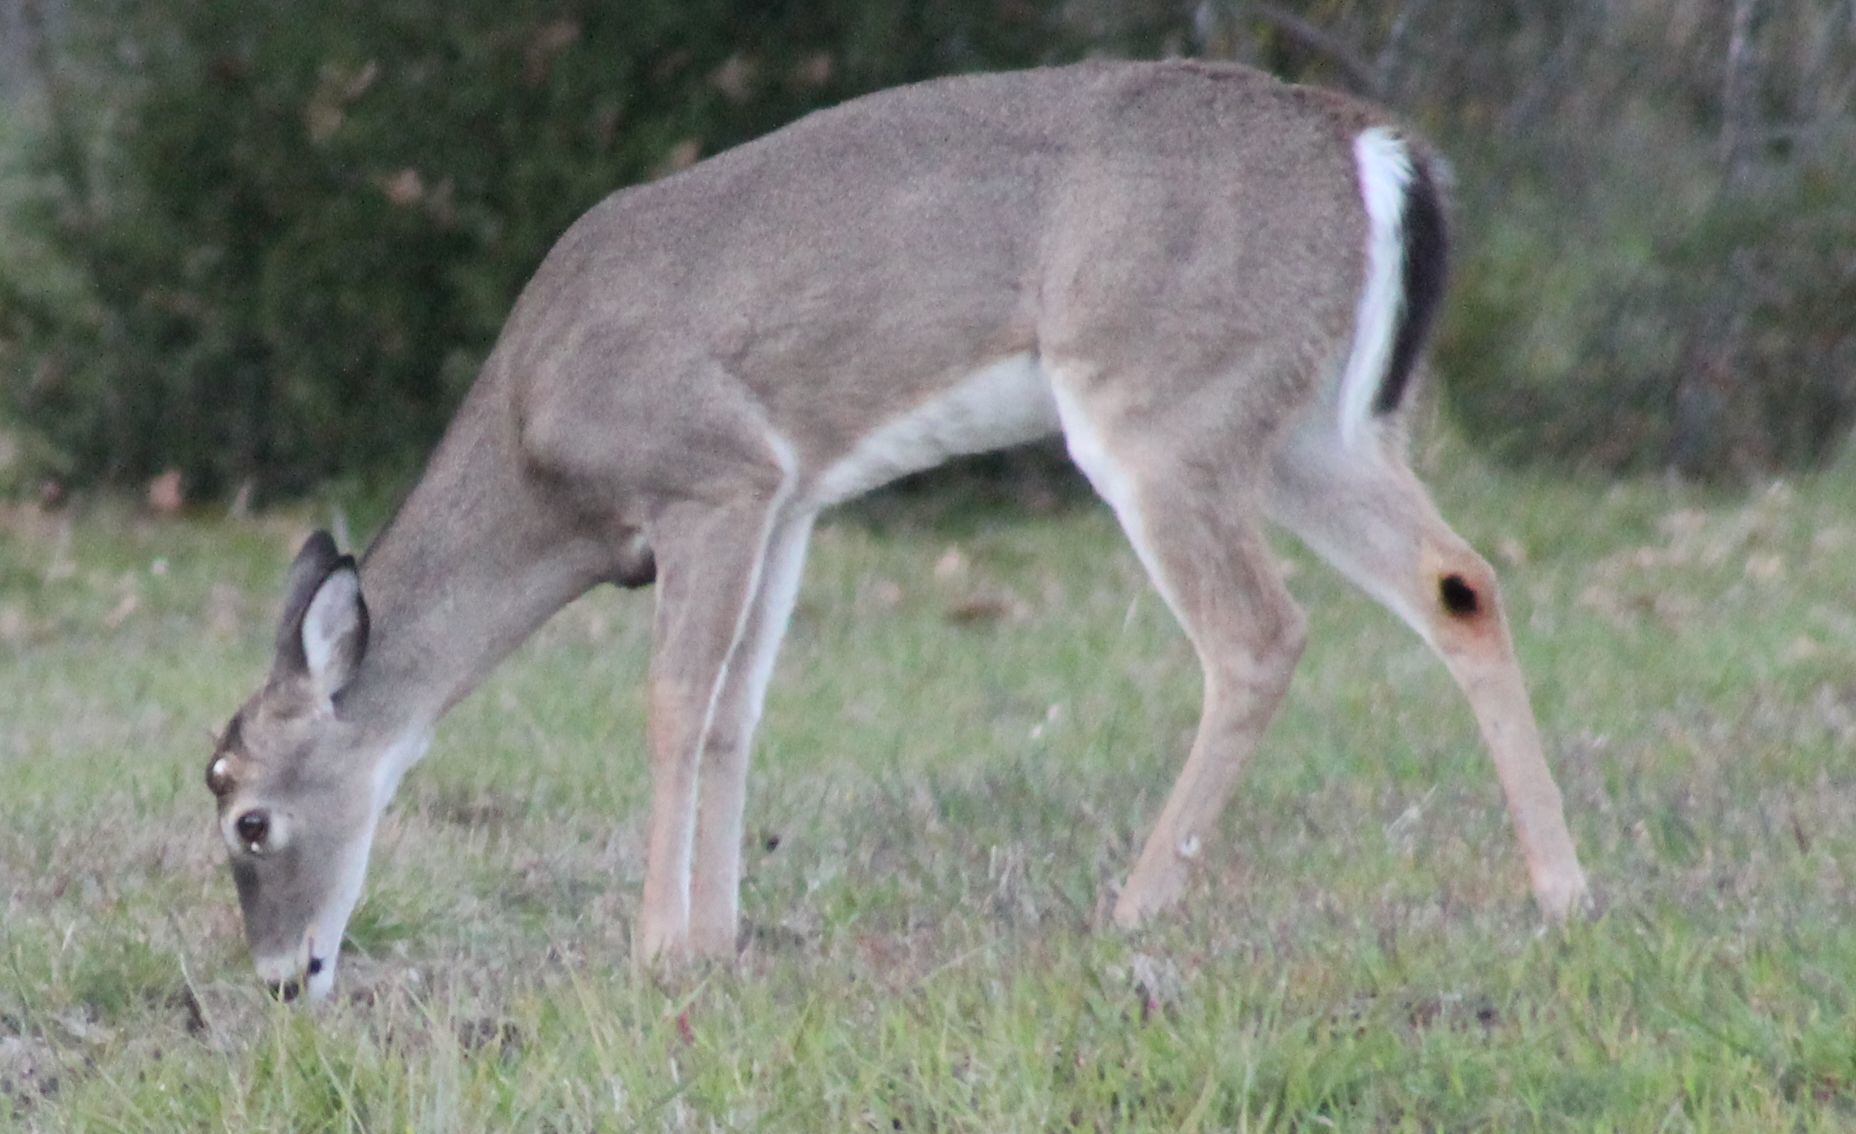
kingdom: Animalia
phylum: Chordata
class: Mammalia
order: Artiodactyla
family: Cervidae
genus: Odocoileus
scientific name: Odocoileus virginianus
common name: White-tailed deer
